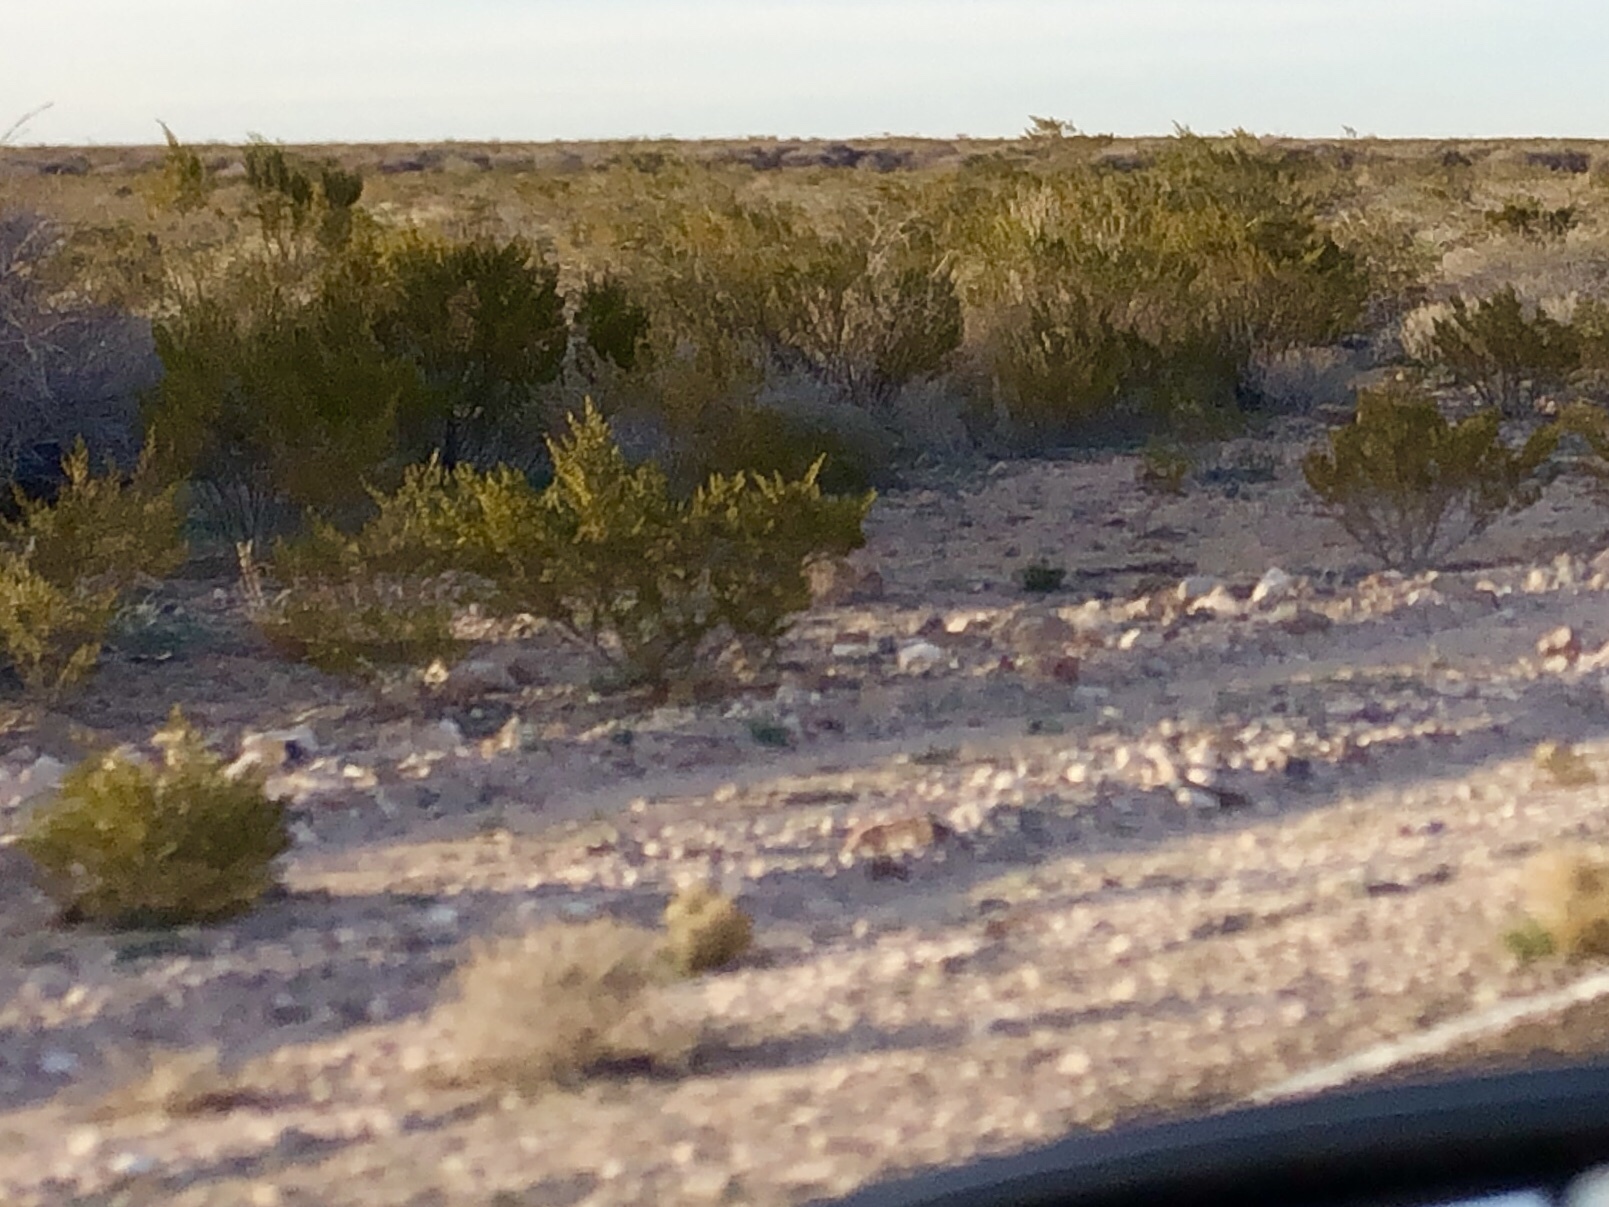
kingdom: Plantae
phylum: Tracheophyta
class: Magnoliopsida
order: Zygophyllales
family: Zygophyllaceae
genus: Larrea
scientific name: Larrea tridentata
